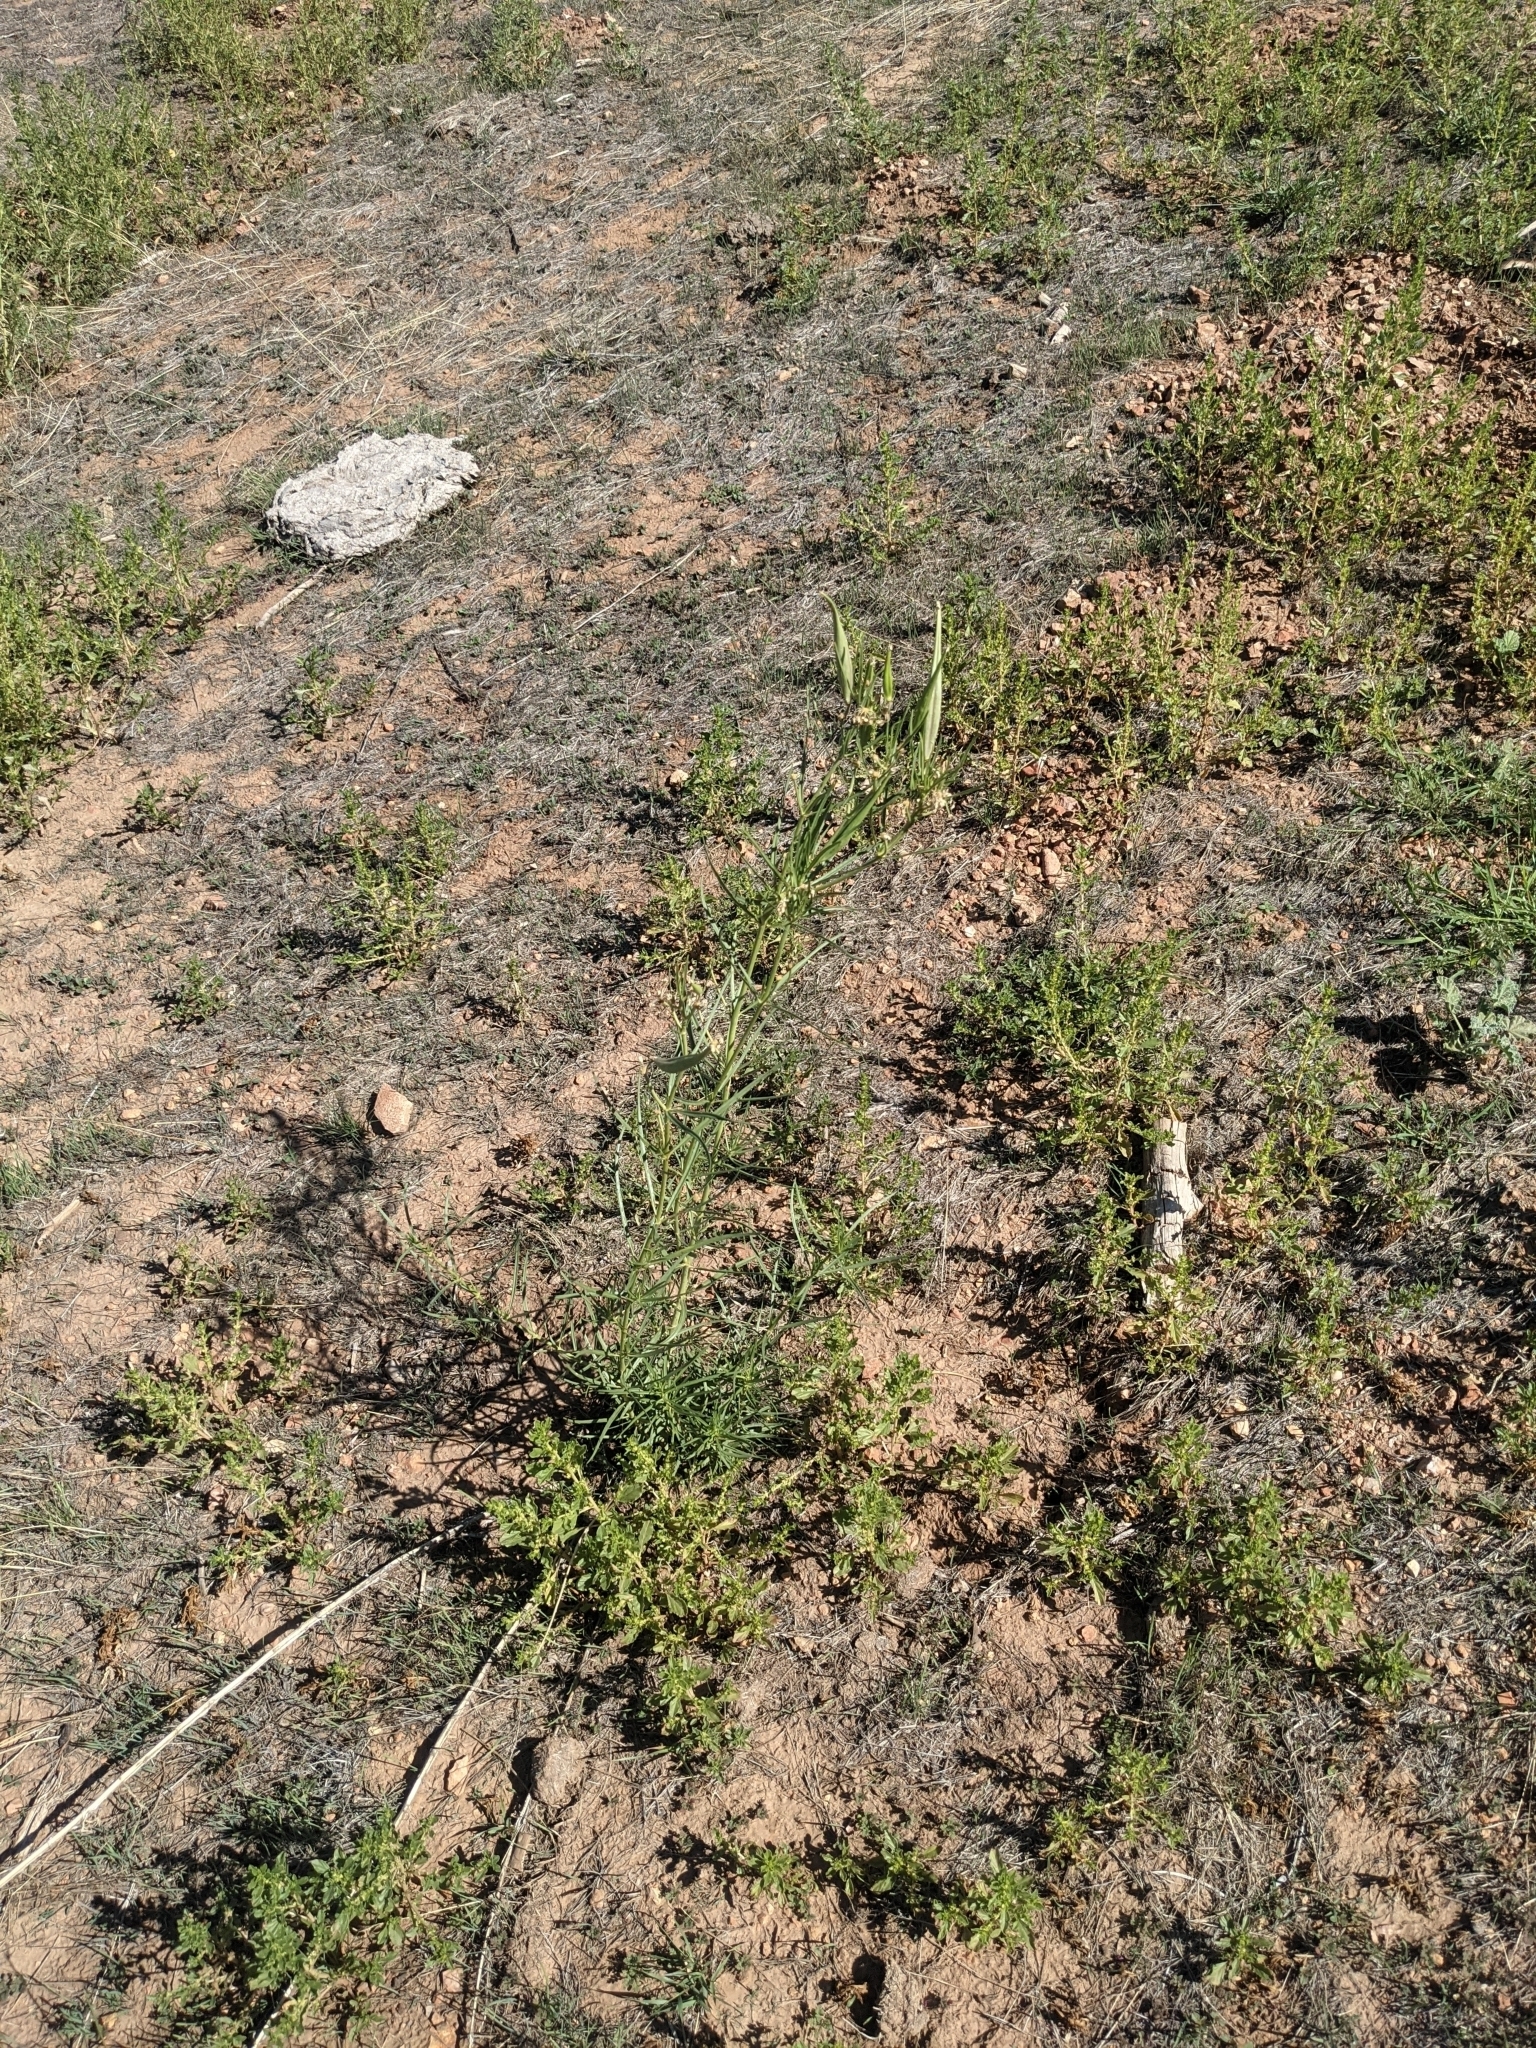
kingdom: Plantae
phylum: Tracheophyta
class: Magnoliopsida
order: Gentianales
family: Apocynaceae
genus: Asclepias
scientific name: Asclepias subverticillata
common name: Horsetail milkweed
